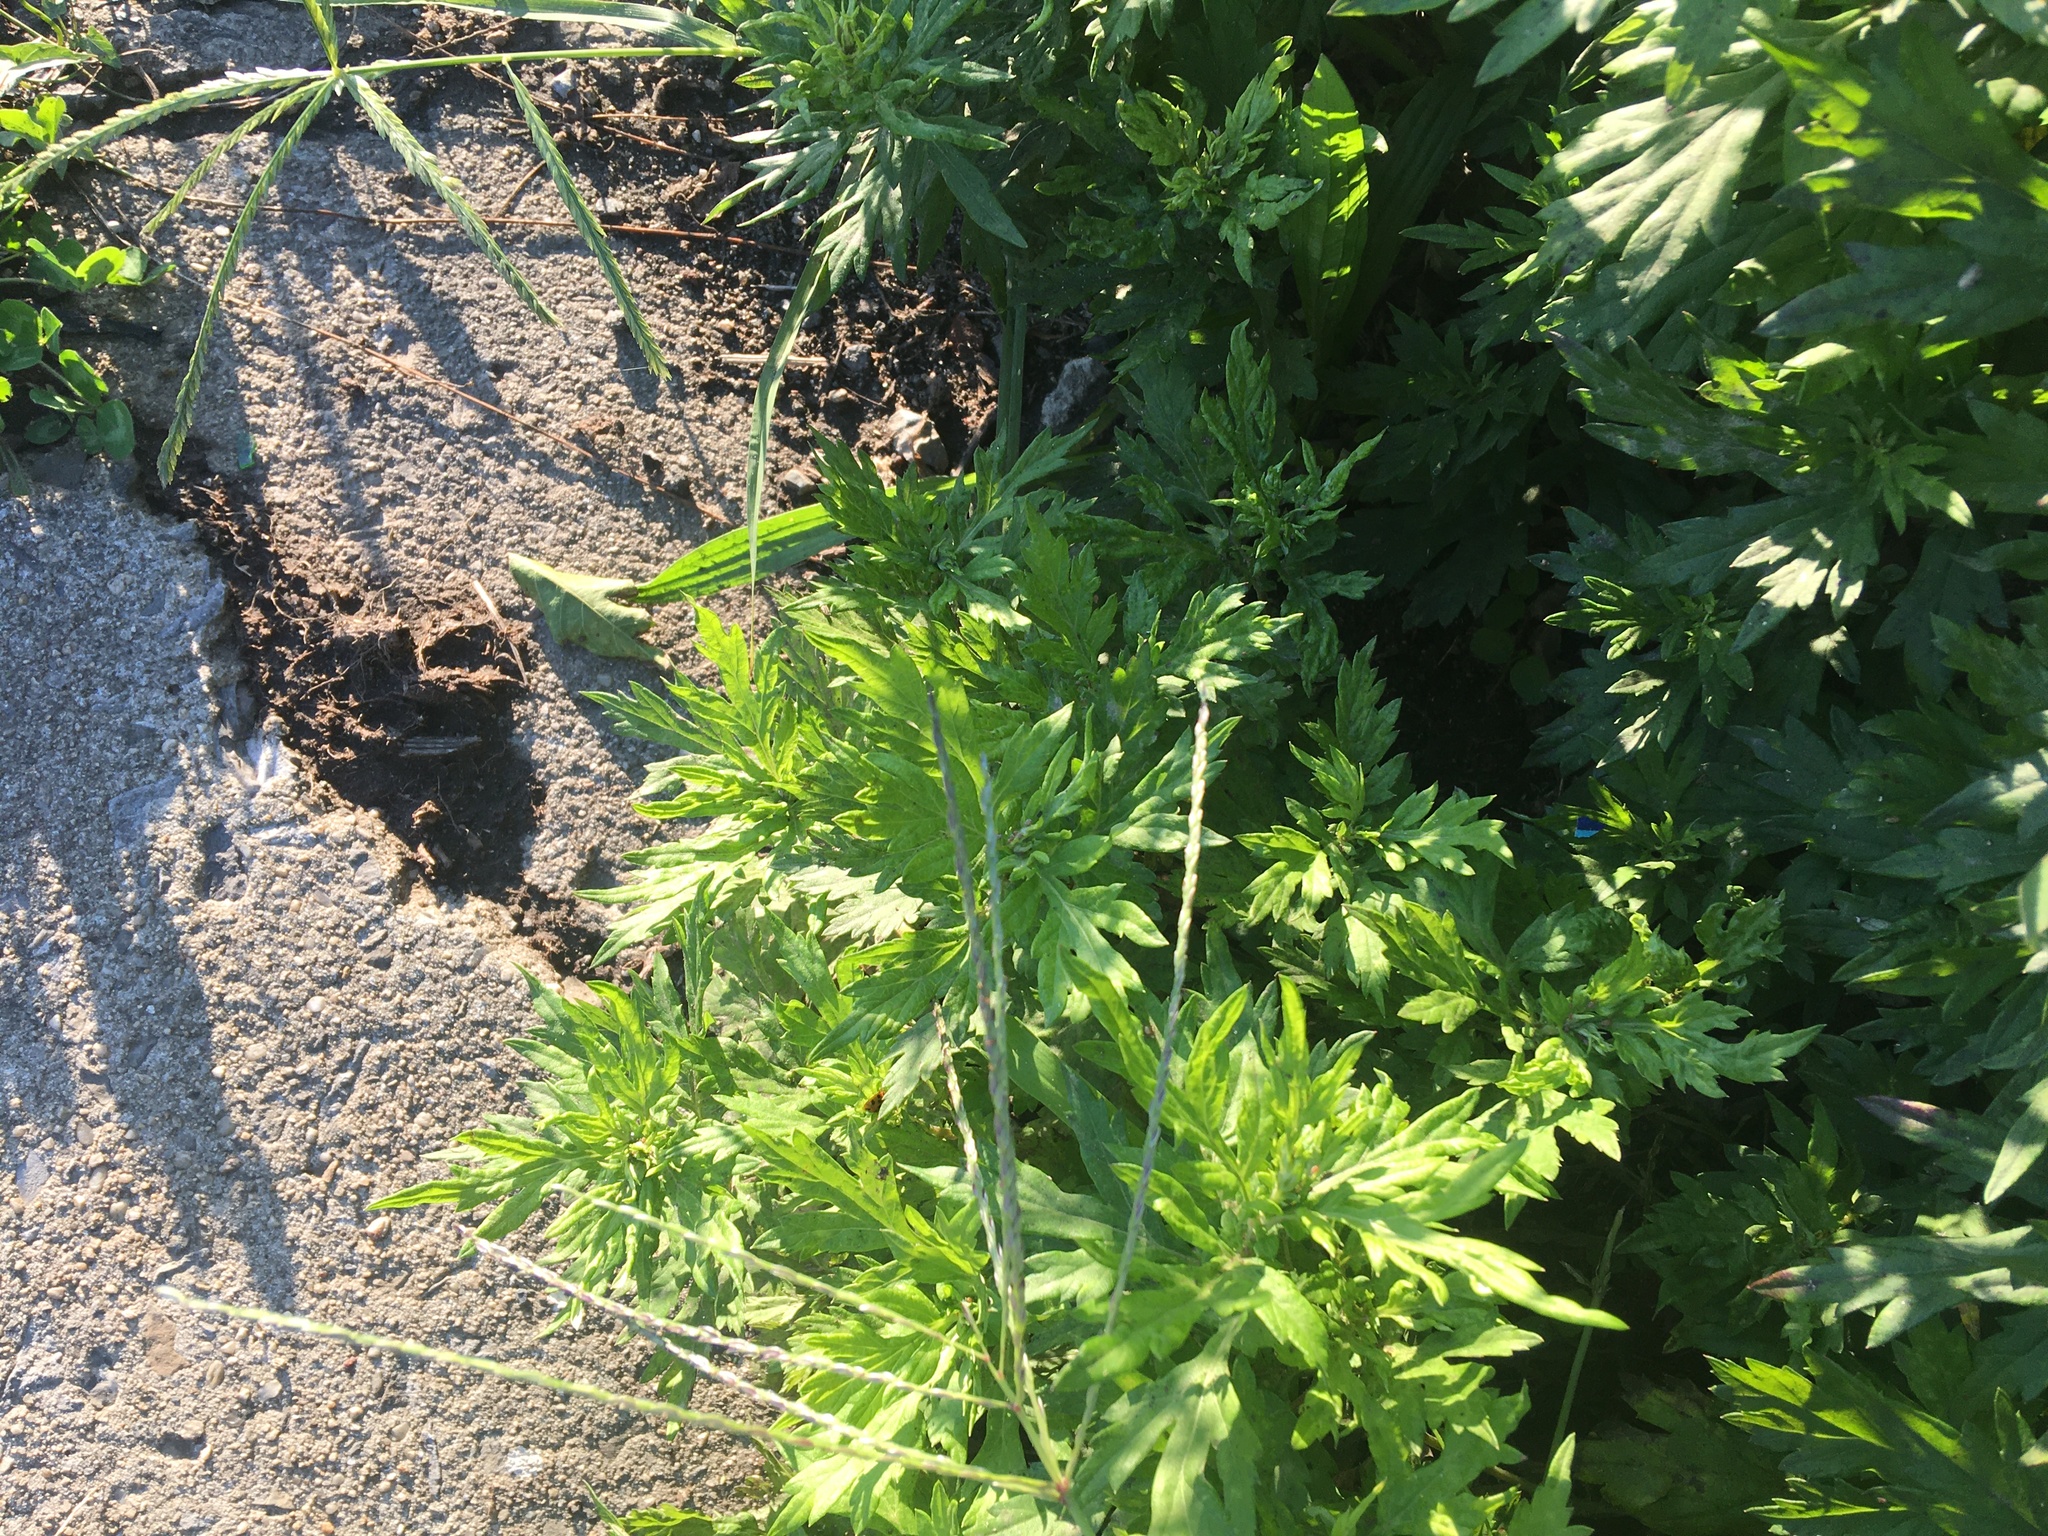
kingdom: Plantae
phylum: Tracheophyta
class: Magnoliopsida
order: Asterales
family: Asteraceae
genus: Artemisia
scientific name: Artemisia vulgaris
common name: Mugwort
